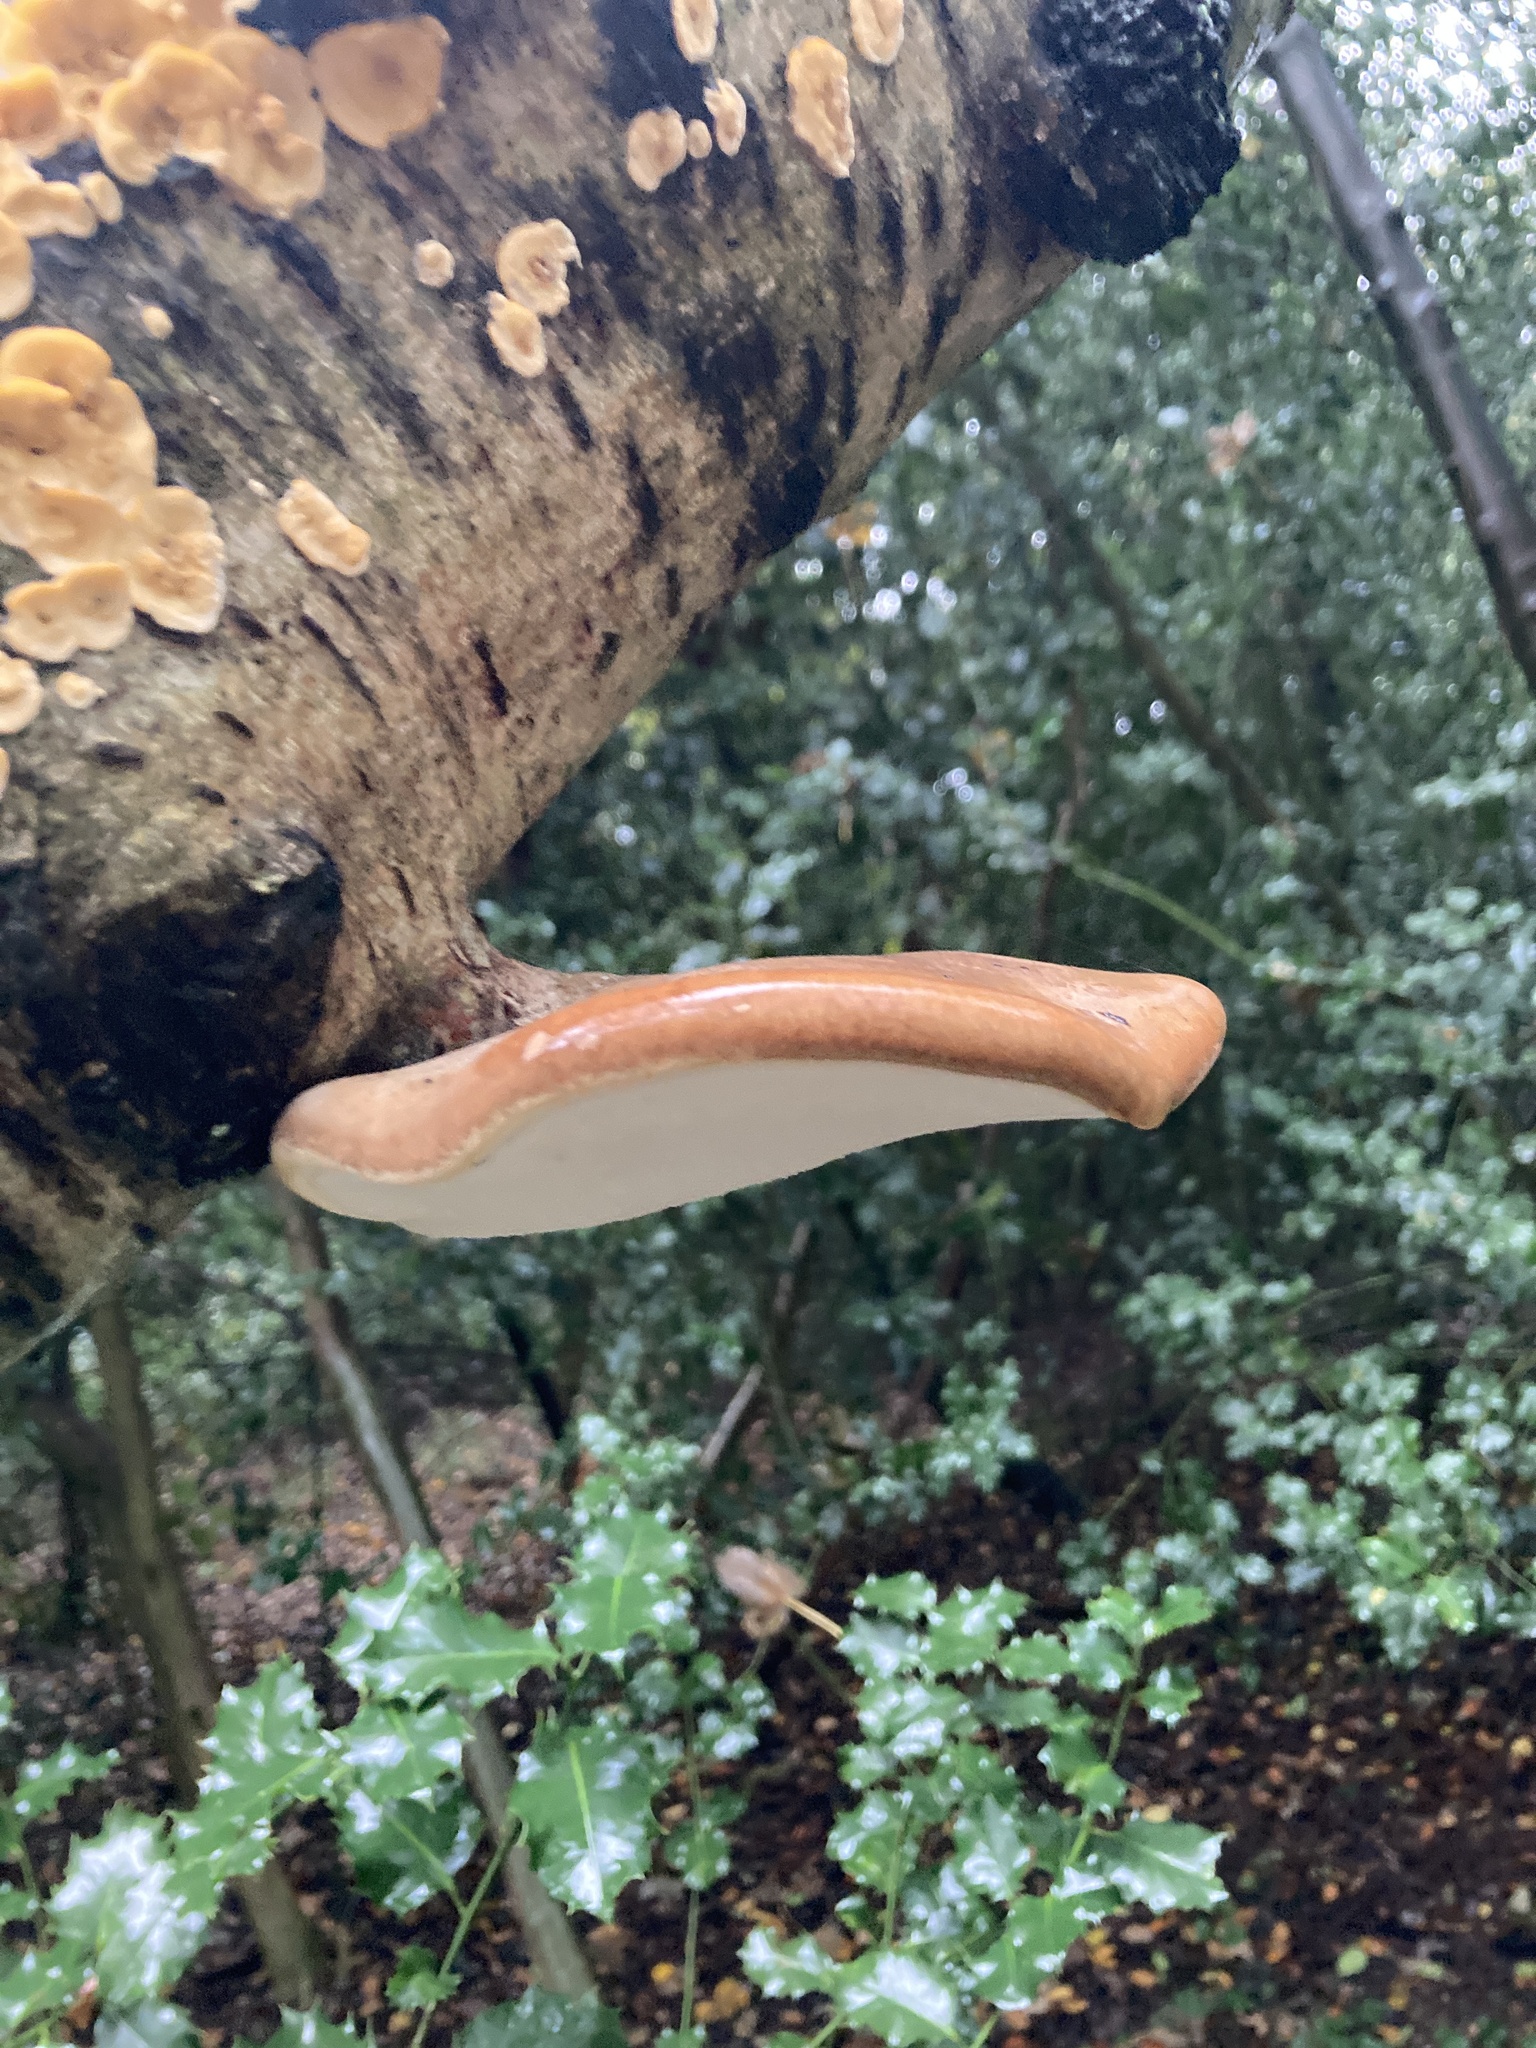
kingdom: Fungi
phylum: Basidiomycota
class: Agaricomycetes
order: Polyporales
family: Fomitopsidaceae
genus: Fomitopsis
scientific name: Fomitopsis betulina
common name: Birch polypore
